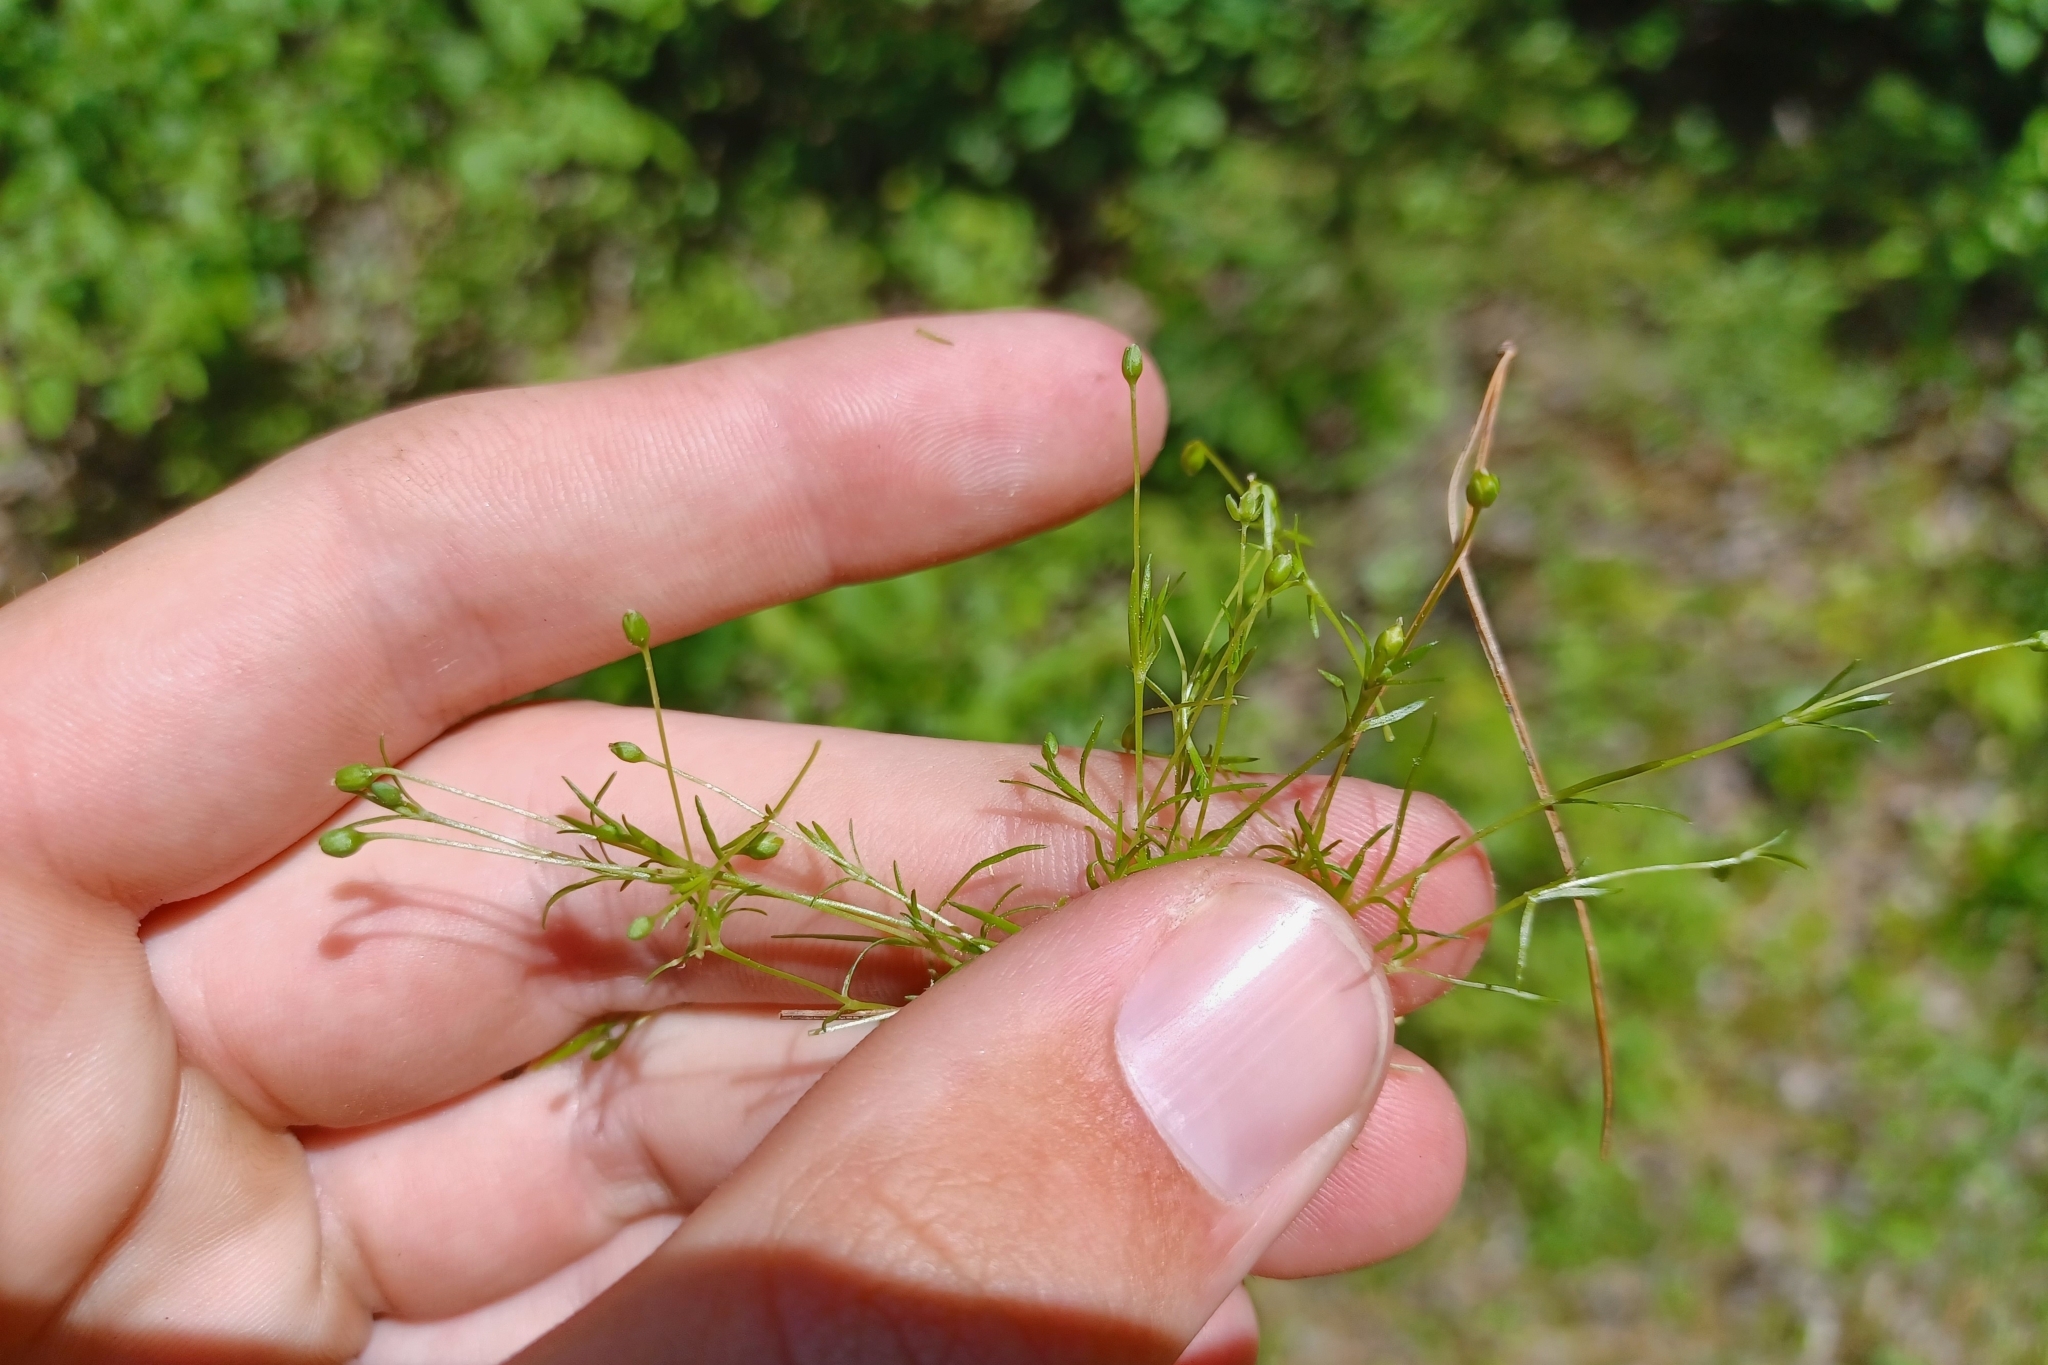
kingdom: Plantae
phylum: Tracheophyta
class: Magnoliopsida
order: Caryophyllales
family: Caryophyllaceae
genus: Sagina
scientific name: Sagina procumbens
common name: Procumbent pearlwort
